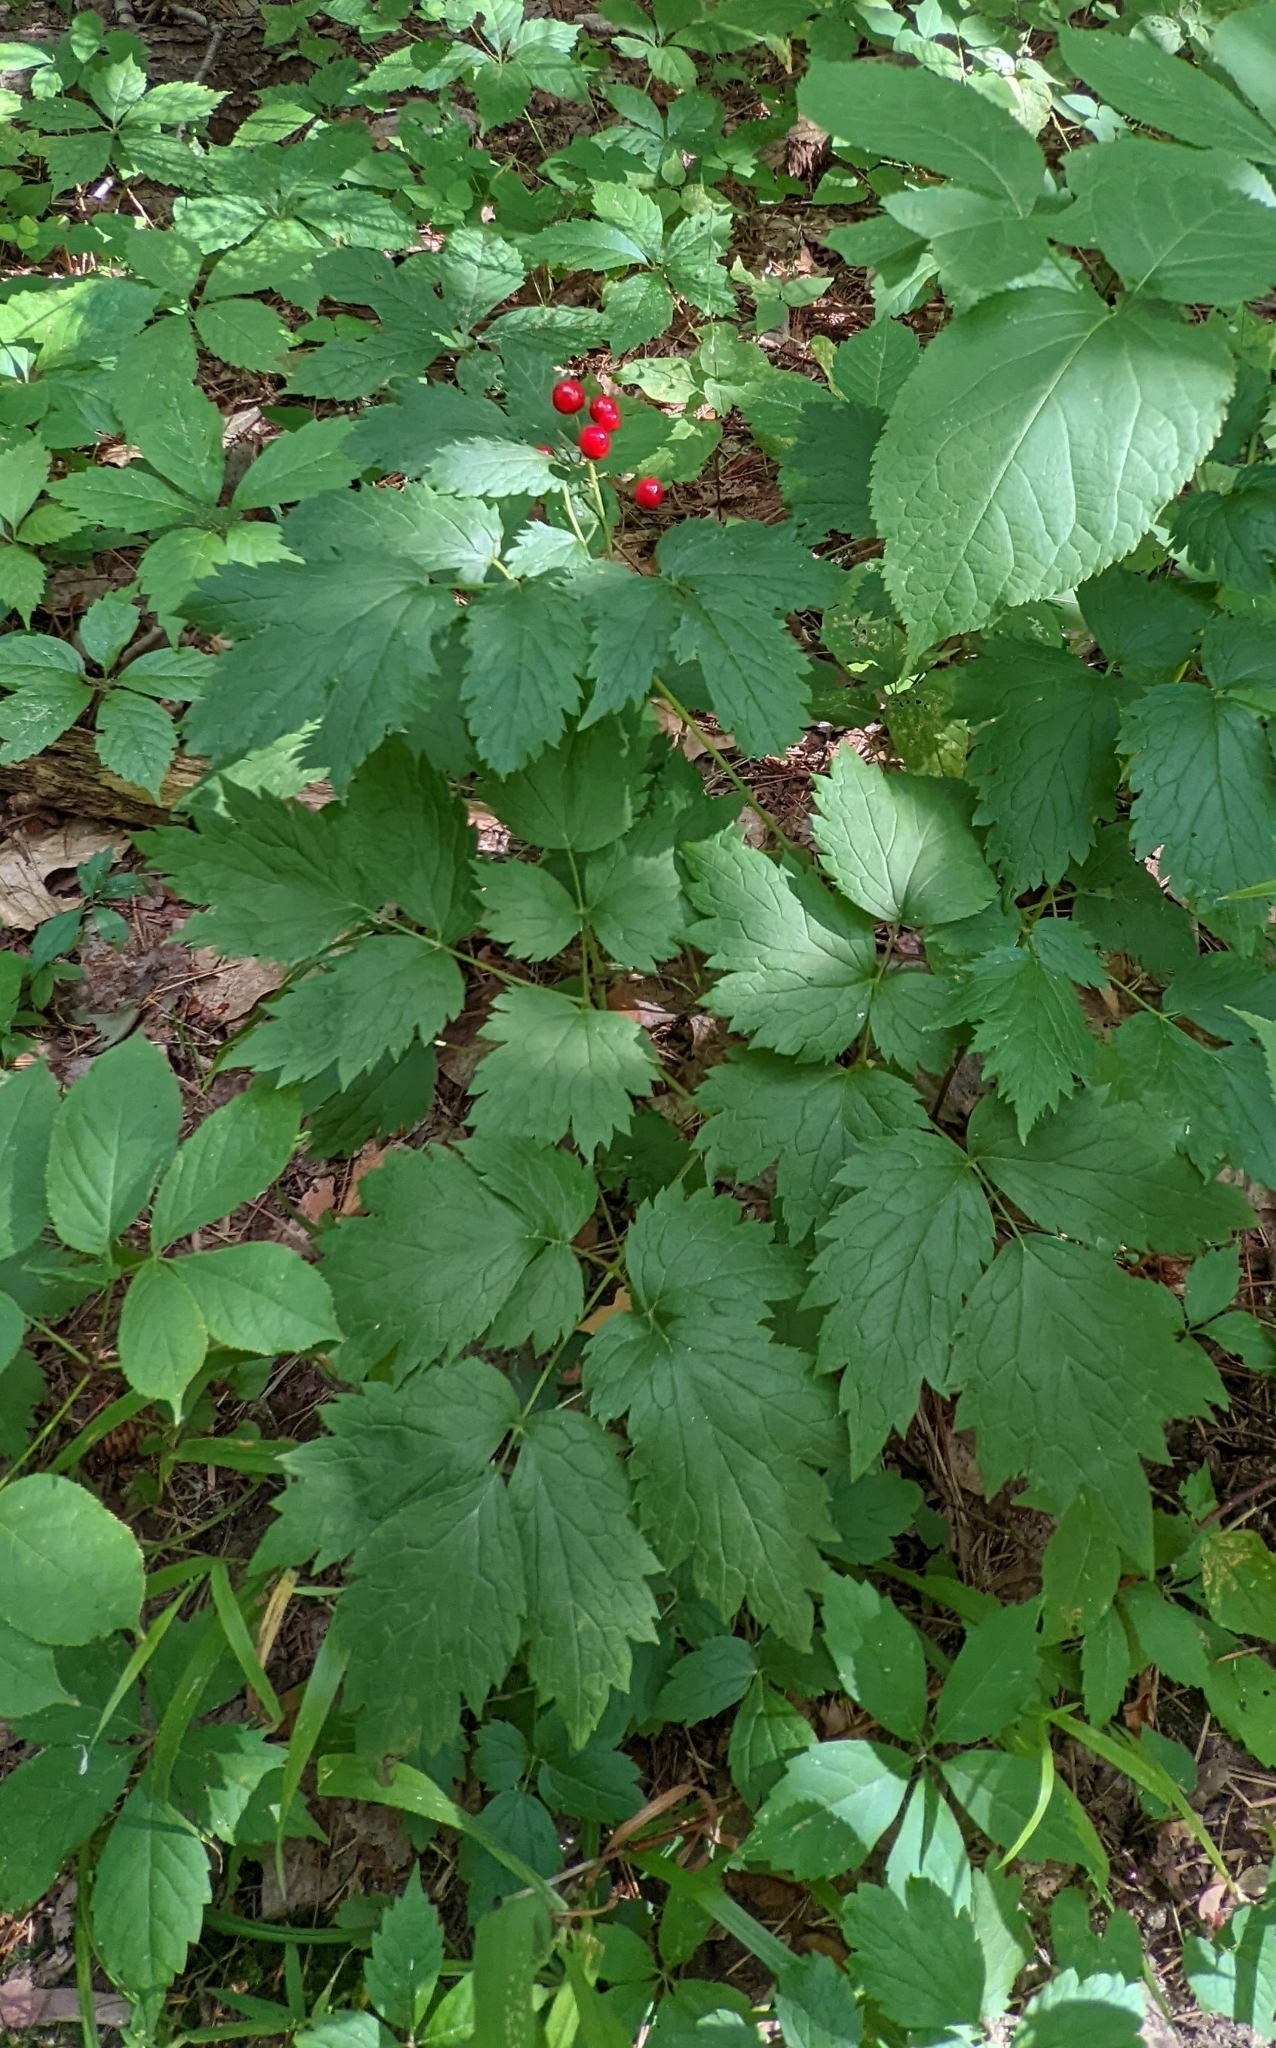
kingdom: Plantae
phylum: Tracheophyta
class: Magnoliopsida
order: Ranunculales
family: Ranunculaceae
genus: Actaea
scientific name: Actaea rubra
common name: Red baneberry
